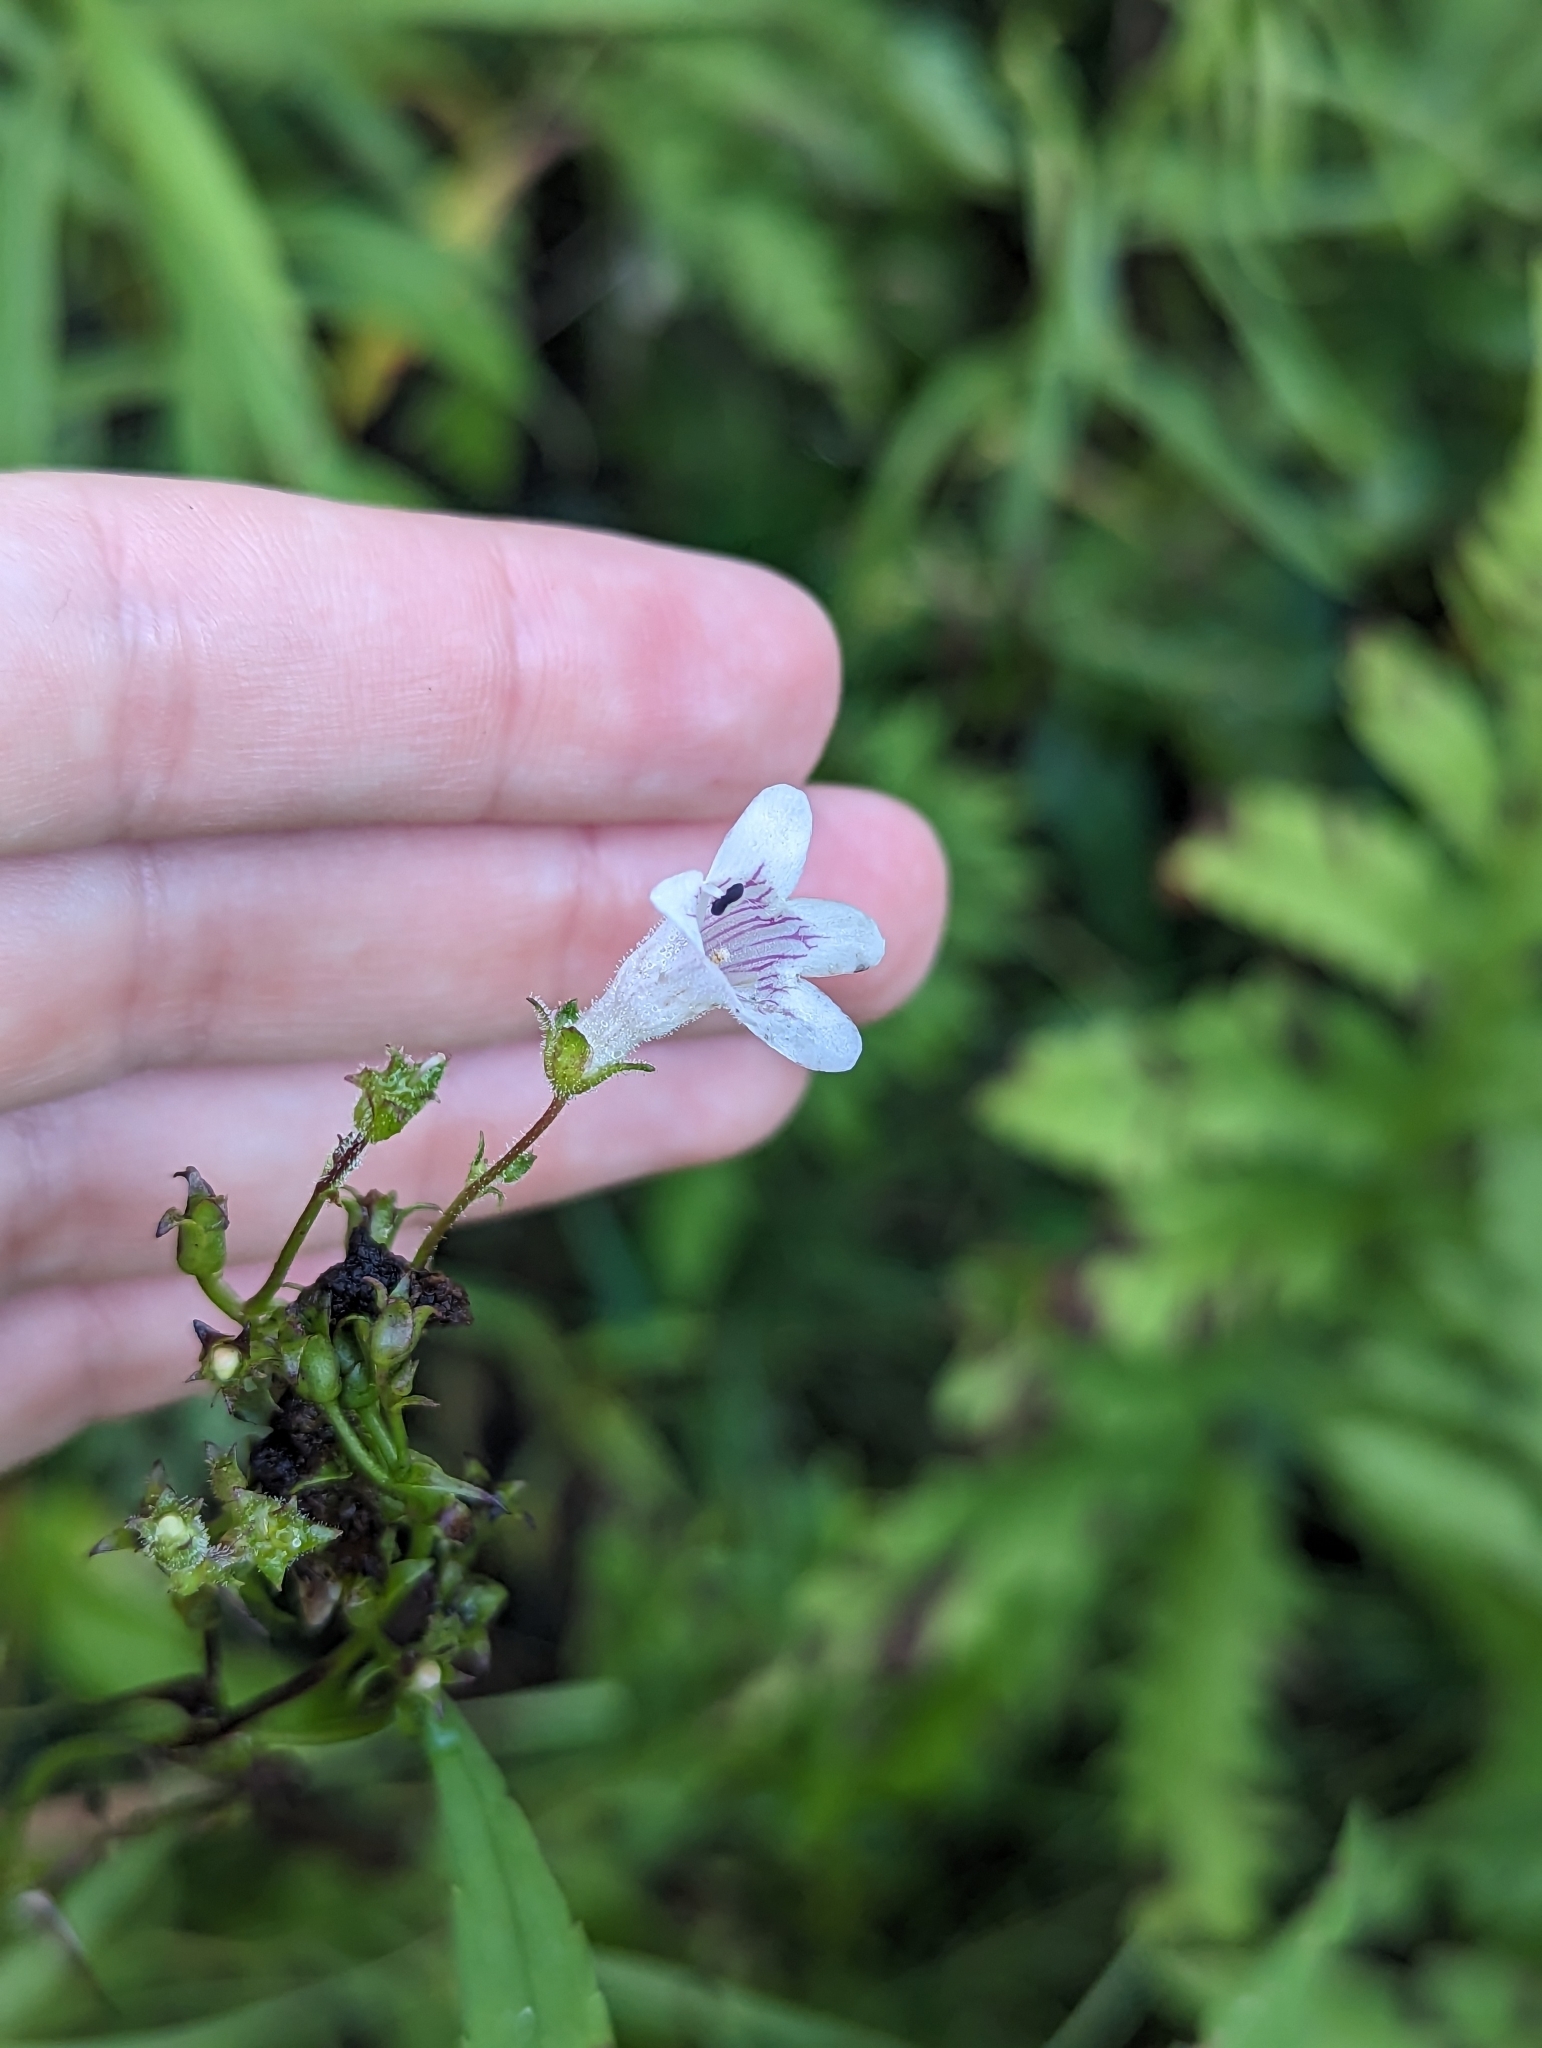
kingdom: Plantae
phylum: Tracheophyta
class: Magnoliopsida
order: Lamiales
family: Plantaginaceae
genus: Penstemon
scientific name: Penstemon digitalis
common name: Foxglove beardtongue
